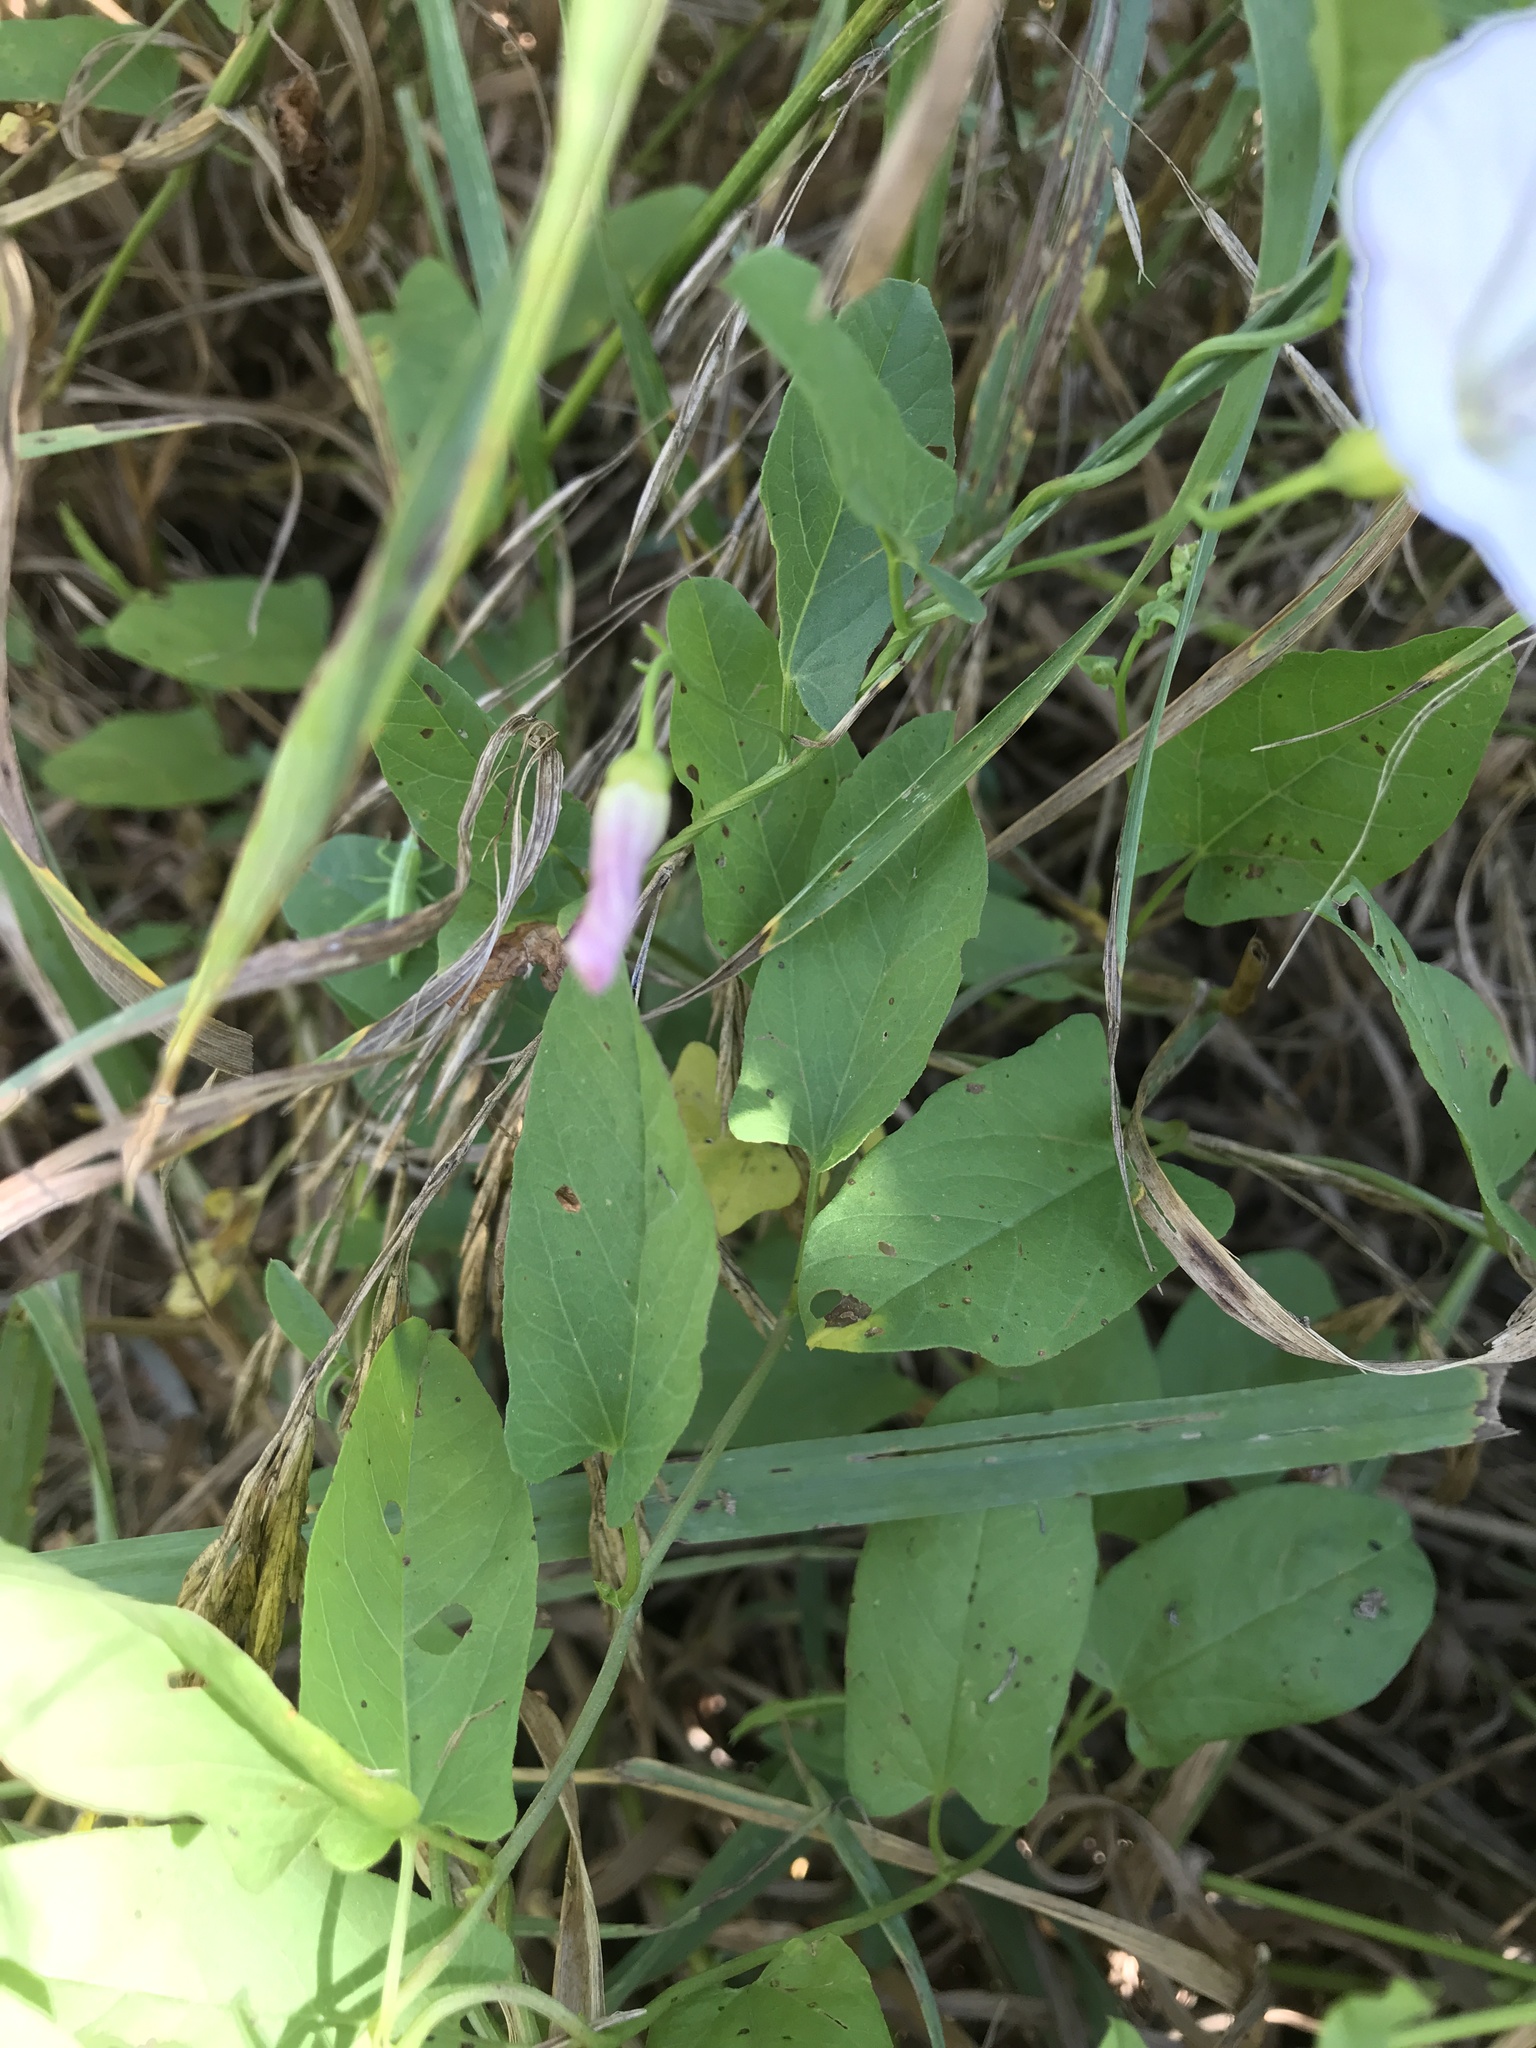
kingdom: Plantae
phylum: Tracheophyta
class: Magnoliopsida
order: Solanales
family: Convolvulaceae
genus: Convolvulus
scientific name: Convolvulus arvensis
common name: Field bindweed
